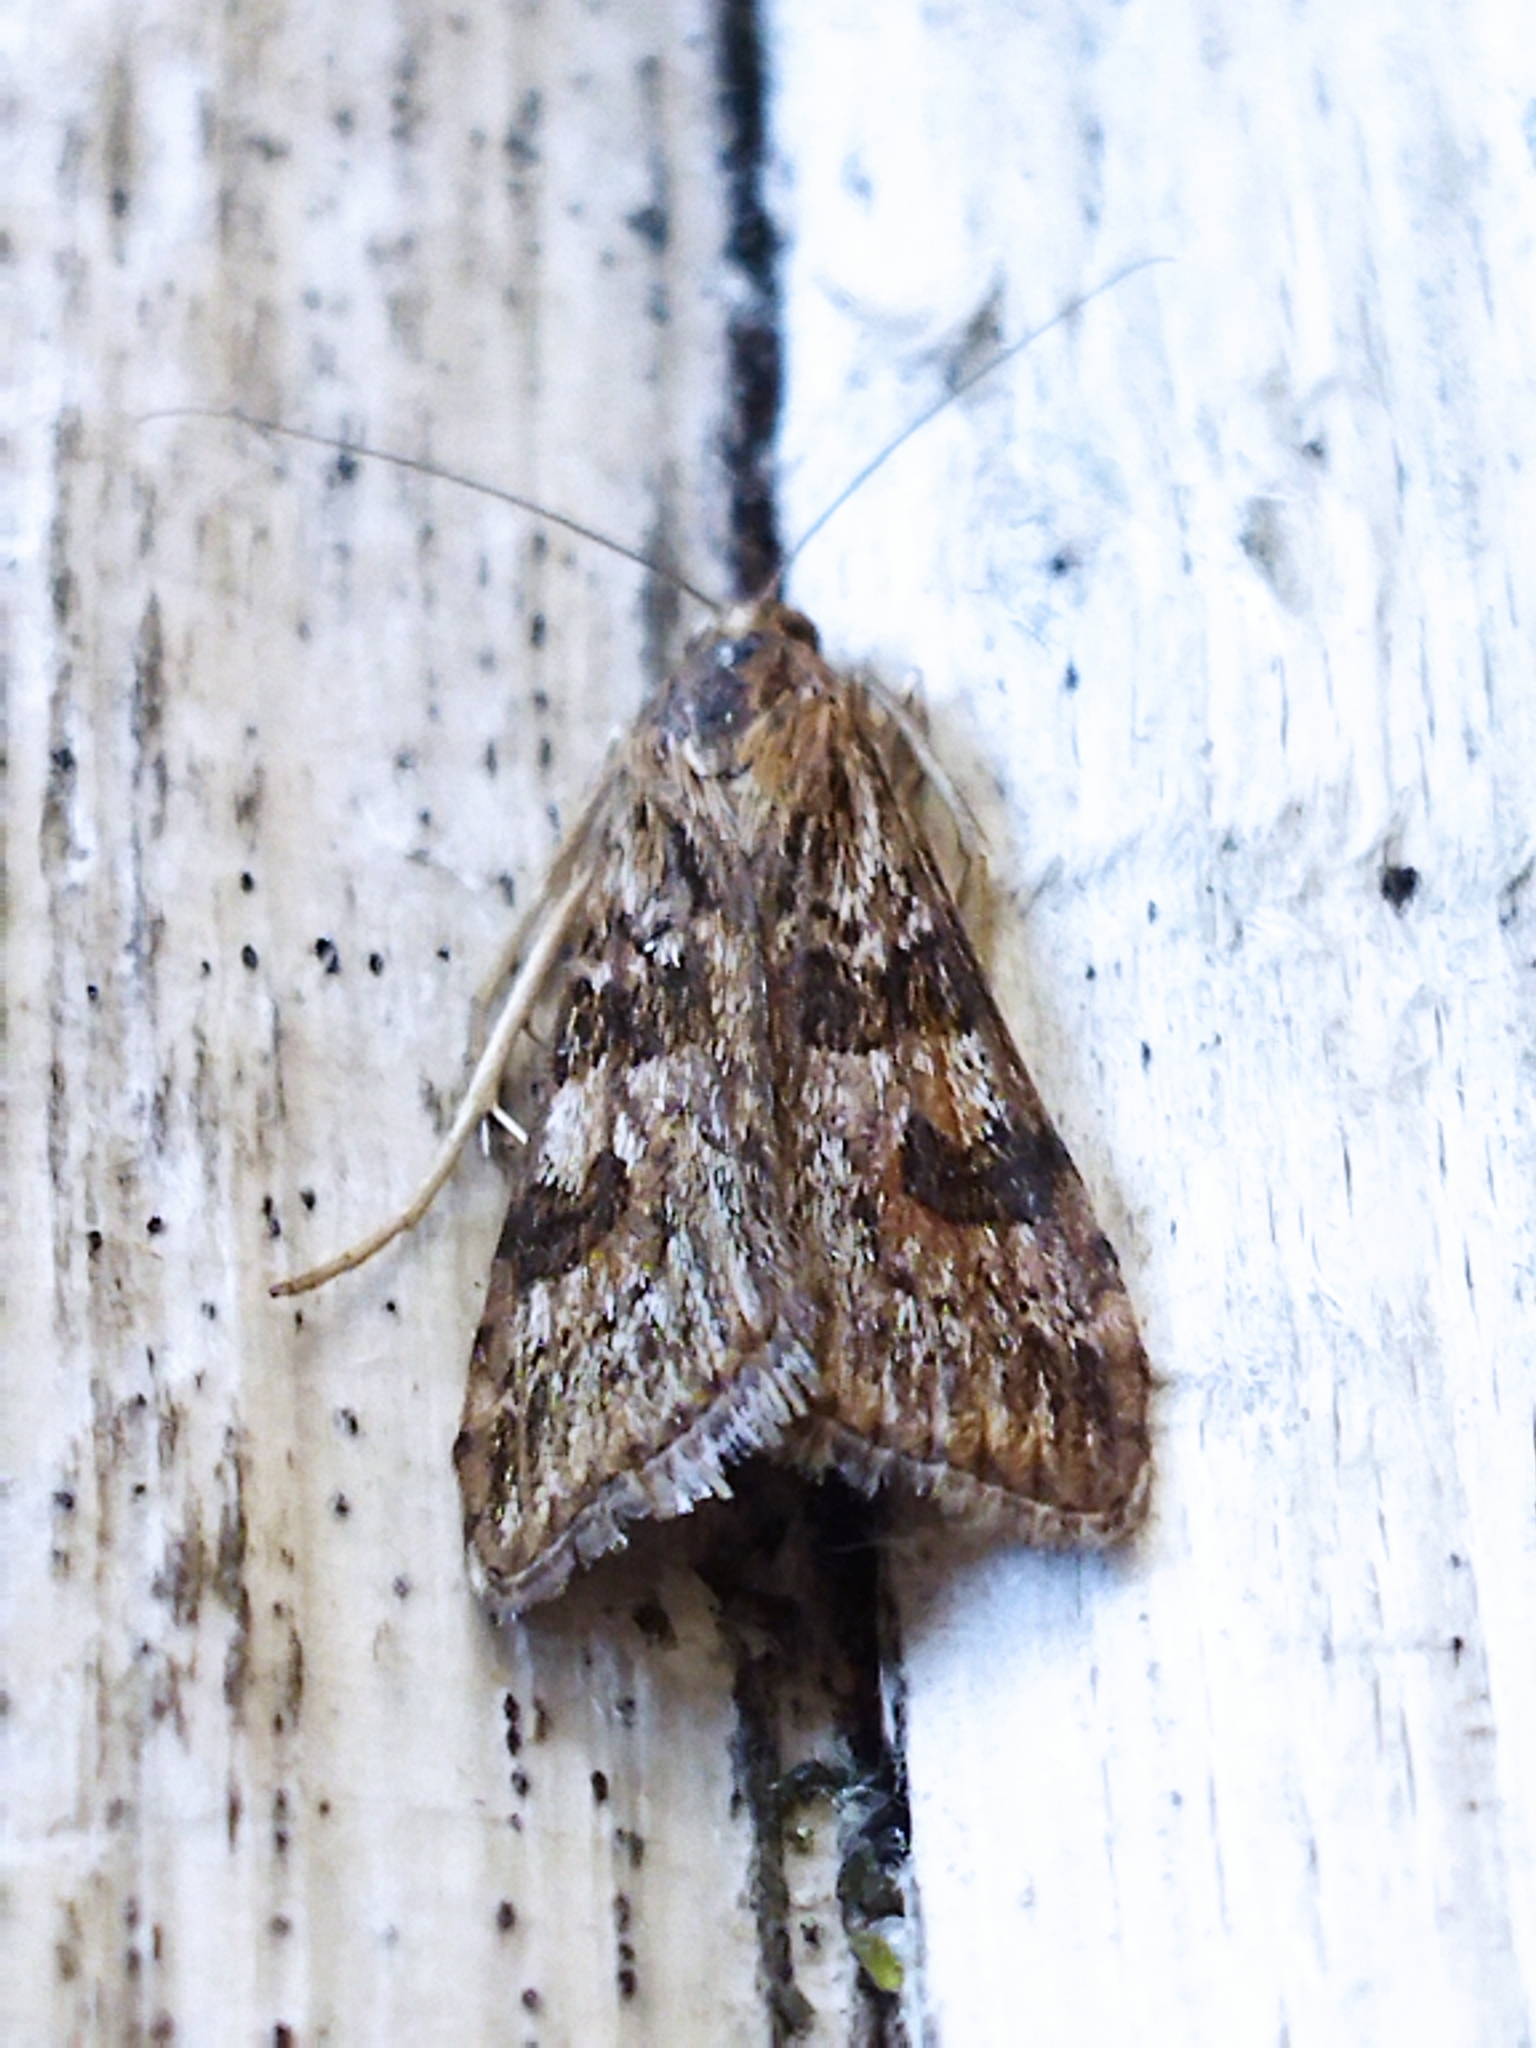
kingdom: Animalia
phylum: Arthropoda
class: Insecta
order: Lepidoptera
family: Crambidae
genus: Nomophila
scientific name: Nomophila noctuella
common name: Rush veneer
